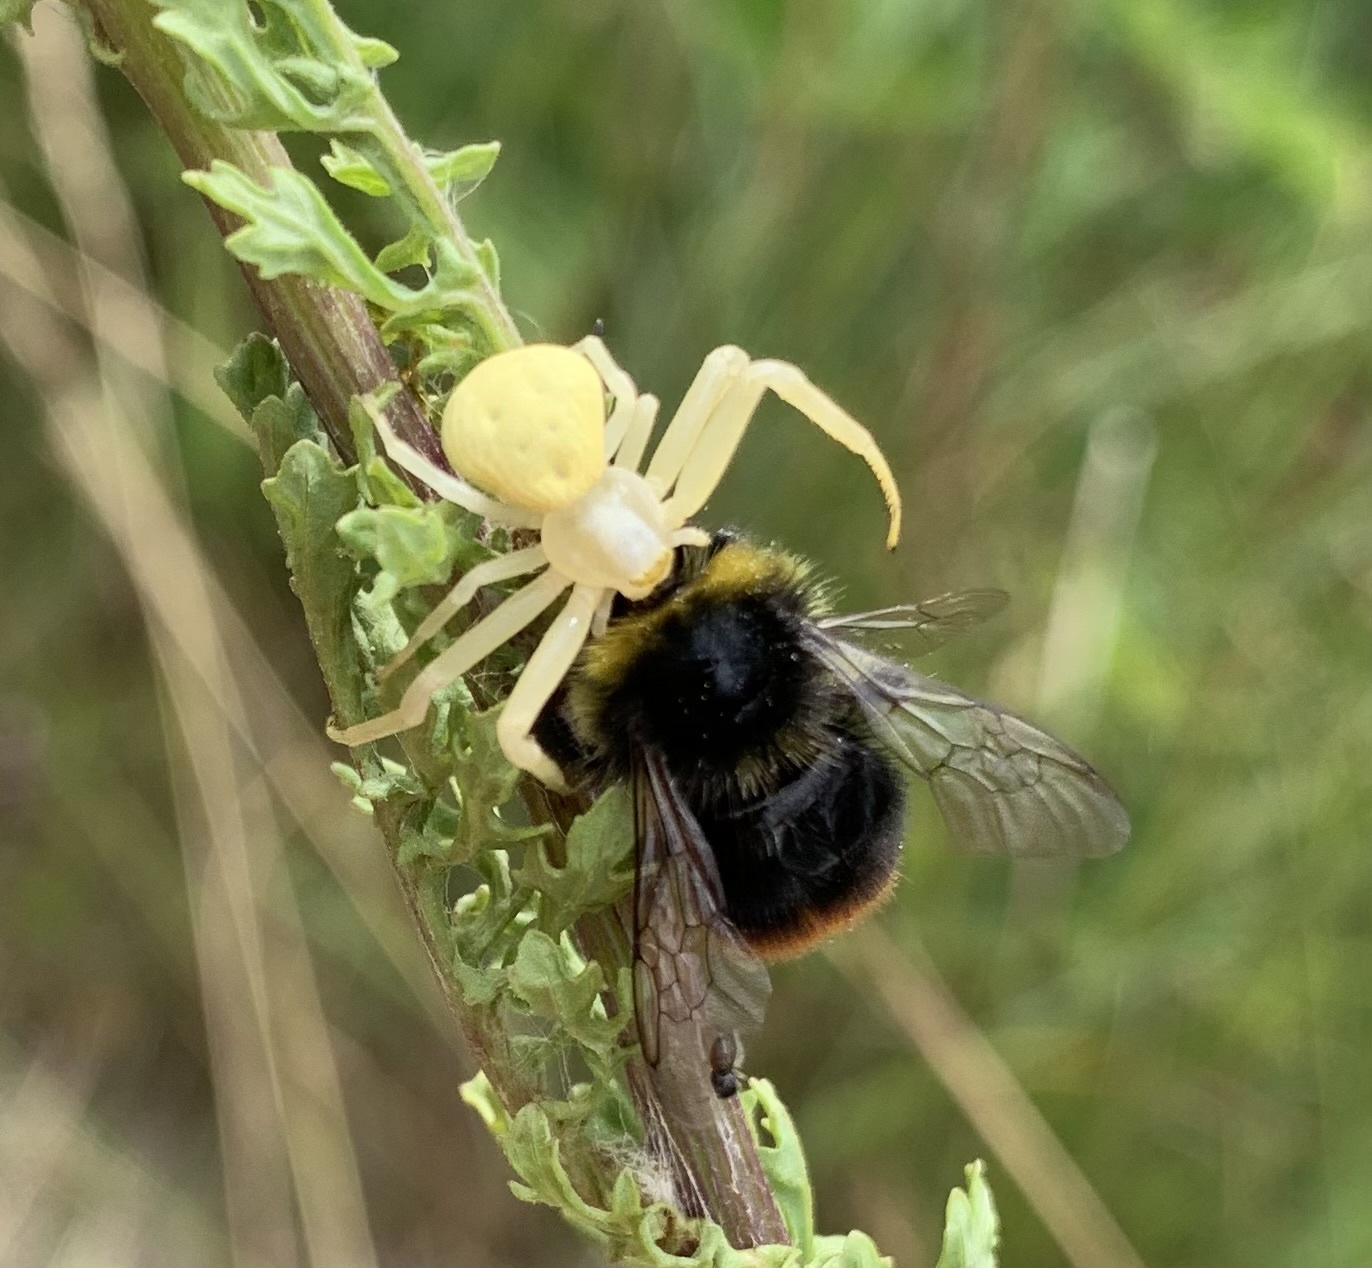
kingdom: Animalia
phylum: Arthropoda
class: Arachnida
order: Araneae
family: Thomisidae
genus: Misumena
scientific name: Misumena vatia
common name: Goldenrod crab spider
